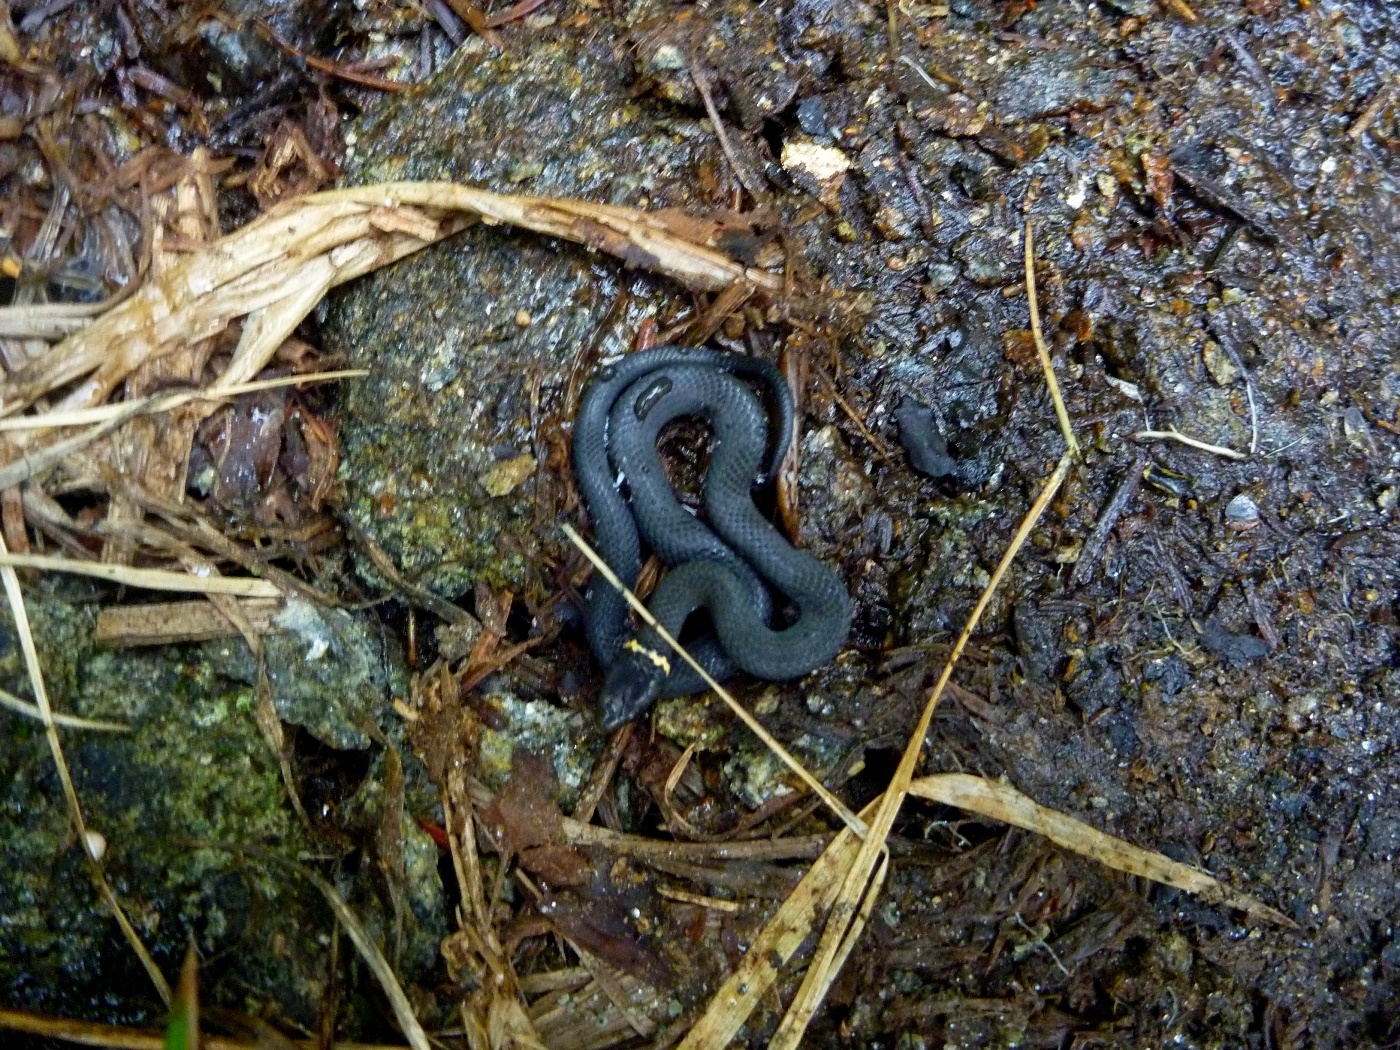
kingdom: Animalia
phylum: Chordata
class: Squamata
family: Colubridae
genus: Diadophis
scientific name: Diadophis punctatus
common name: Ringneck snake
